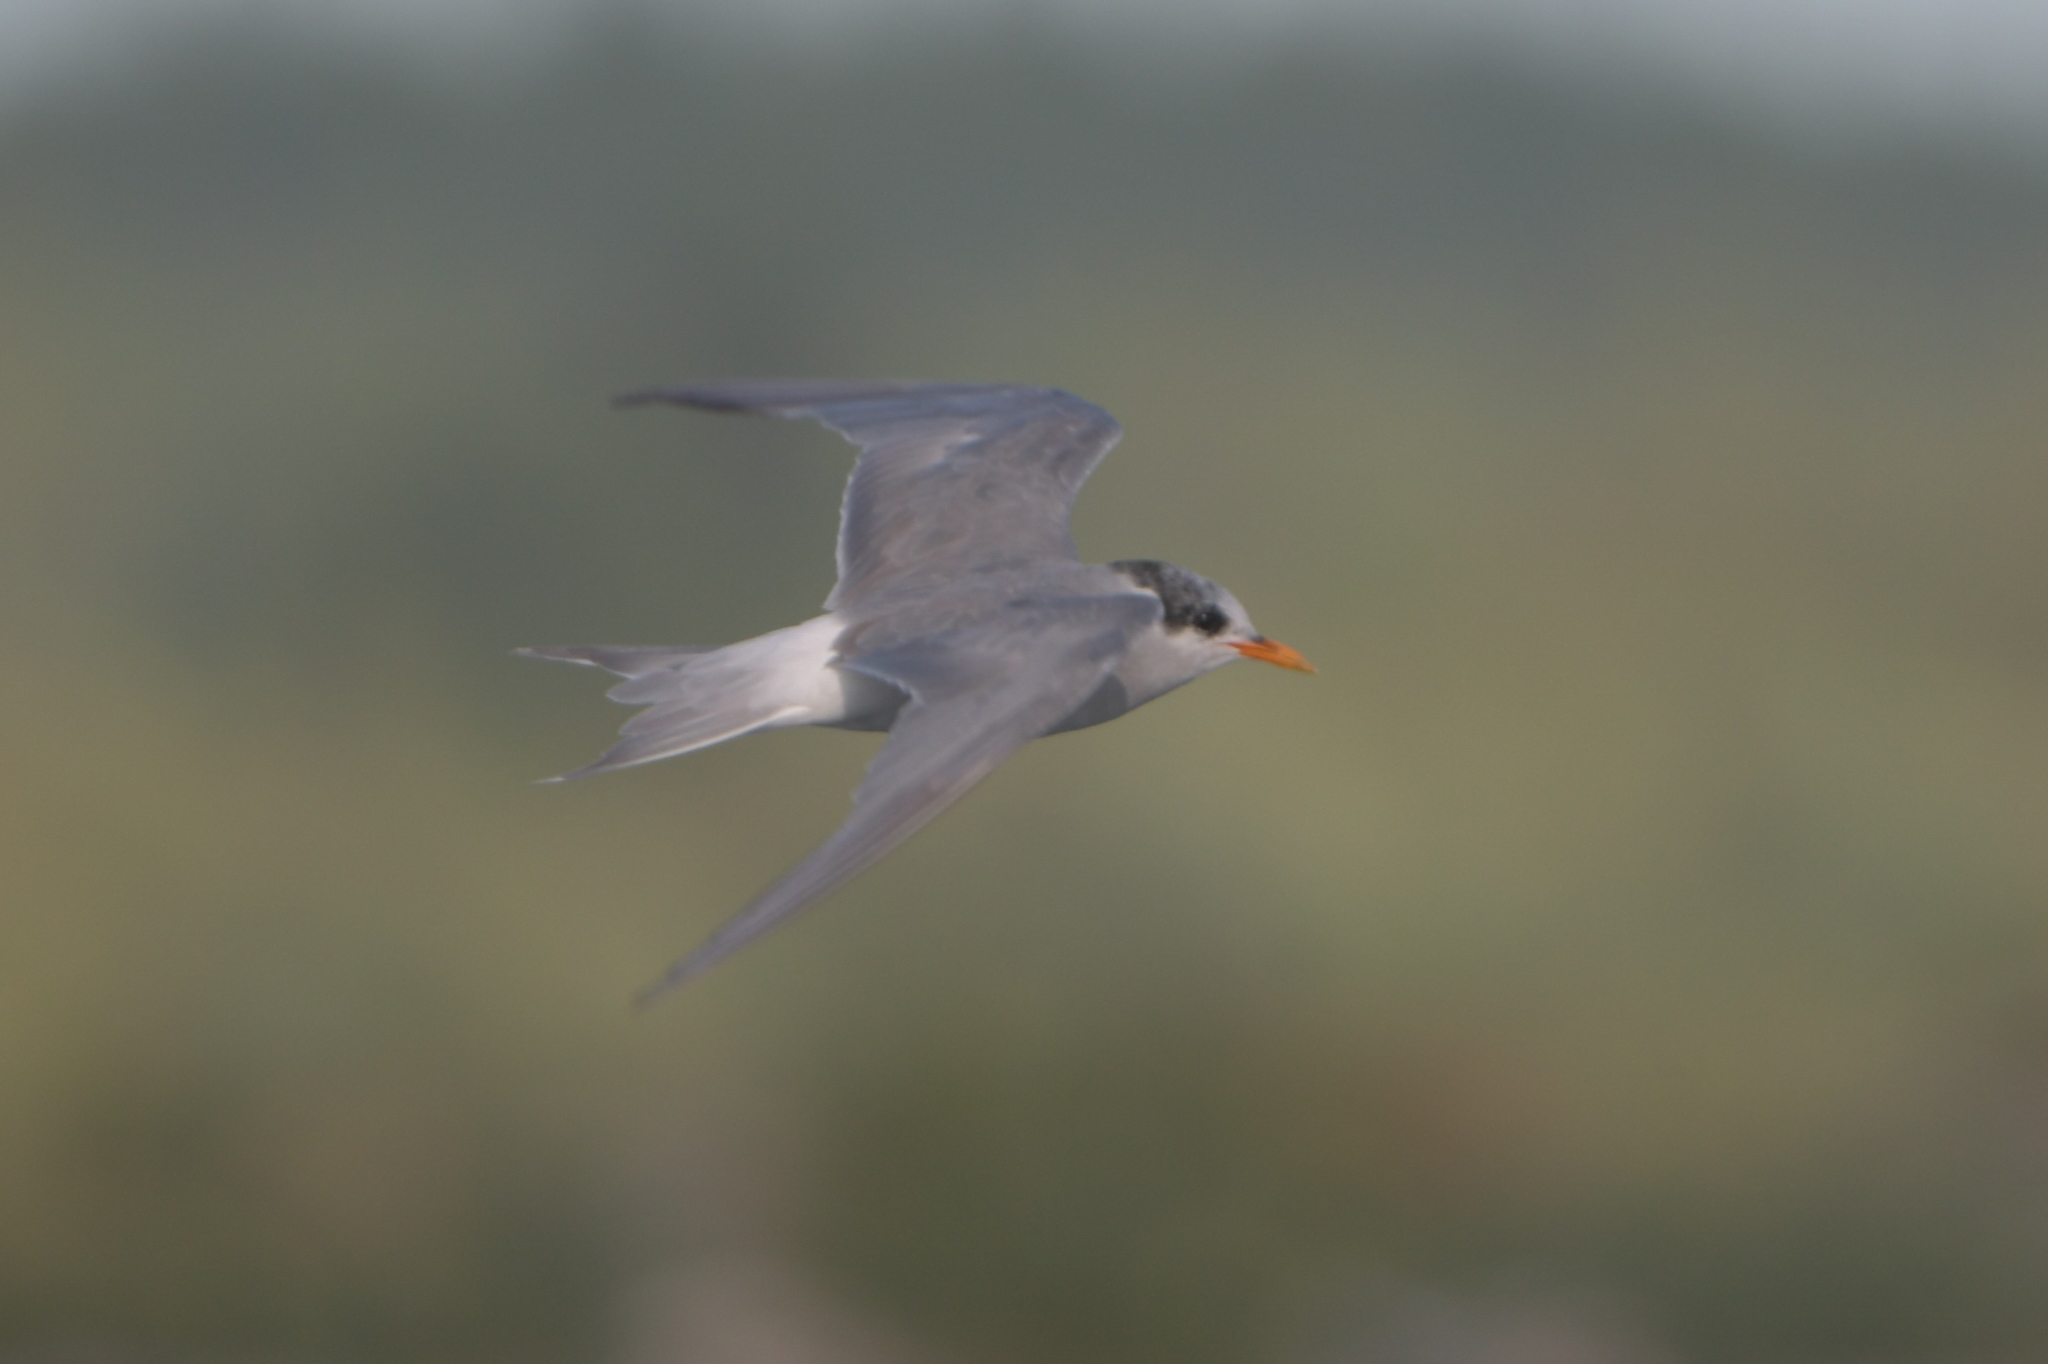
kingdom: Animalia
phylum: Chordata
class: Aves
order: Charadriiformes
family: Laridae
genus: Chlidonias
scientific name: Chlidonias albostriatus
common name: Black-fronted tern
